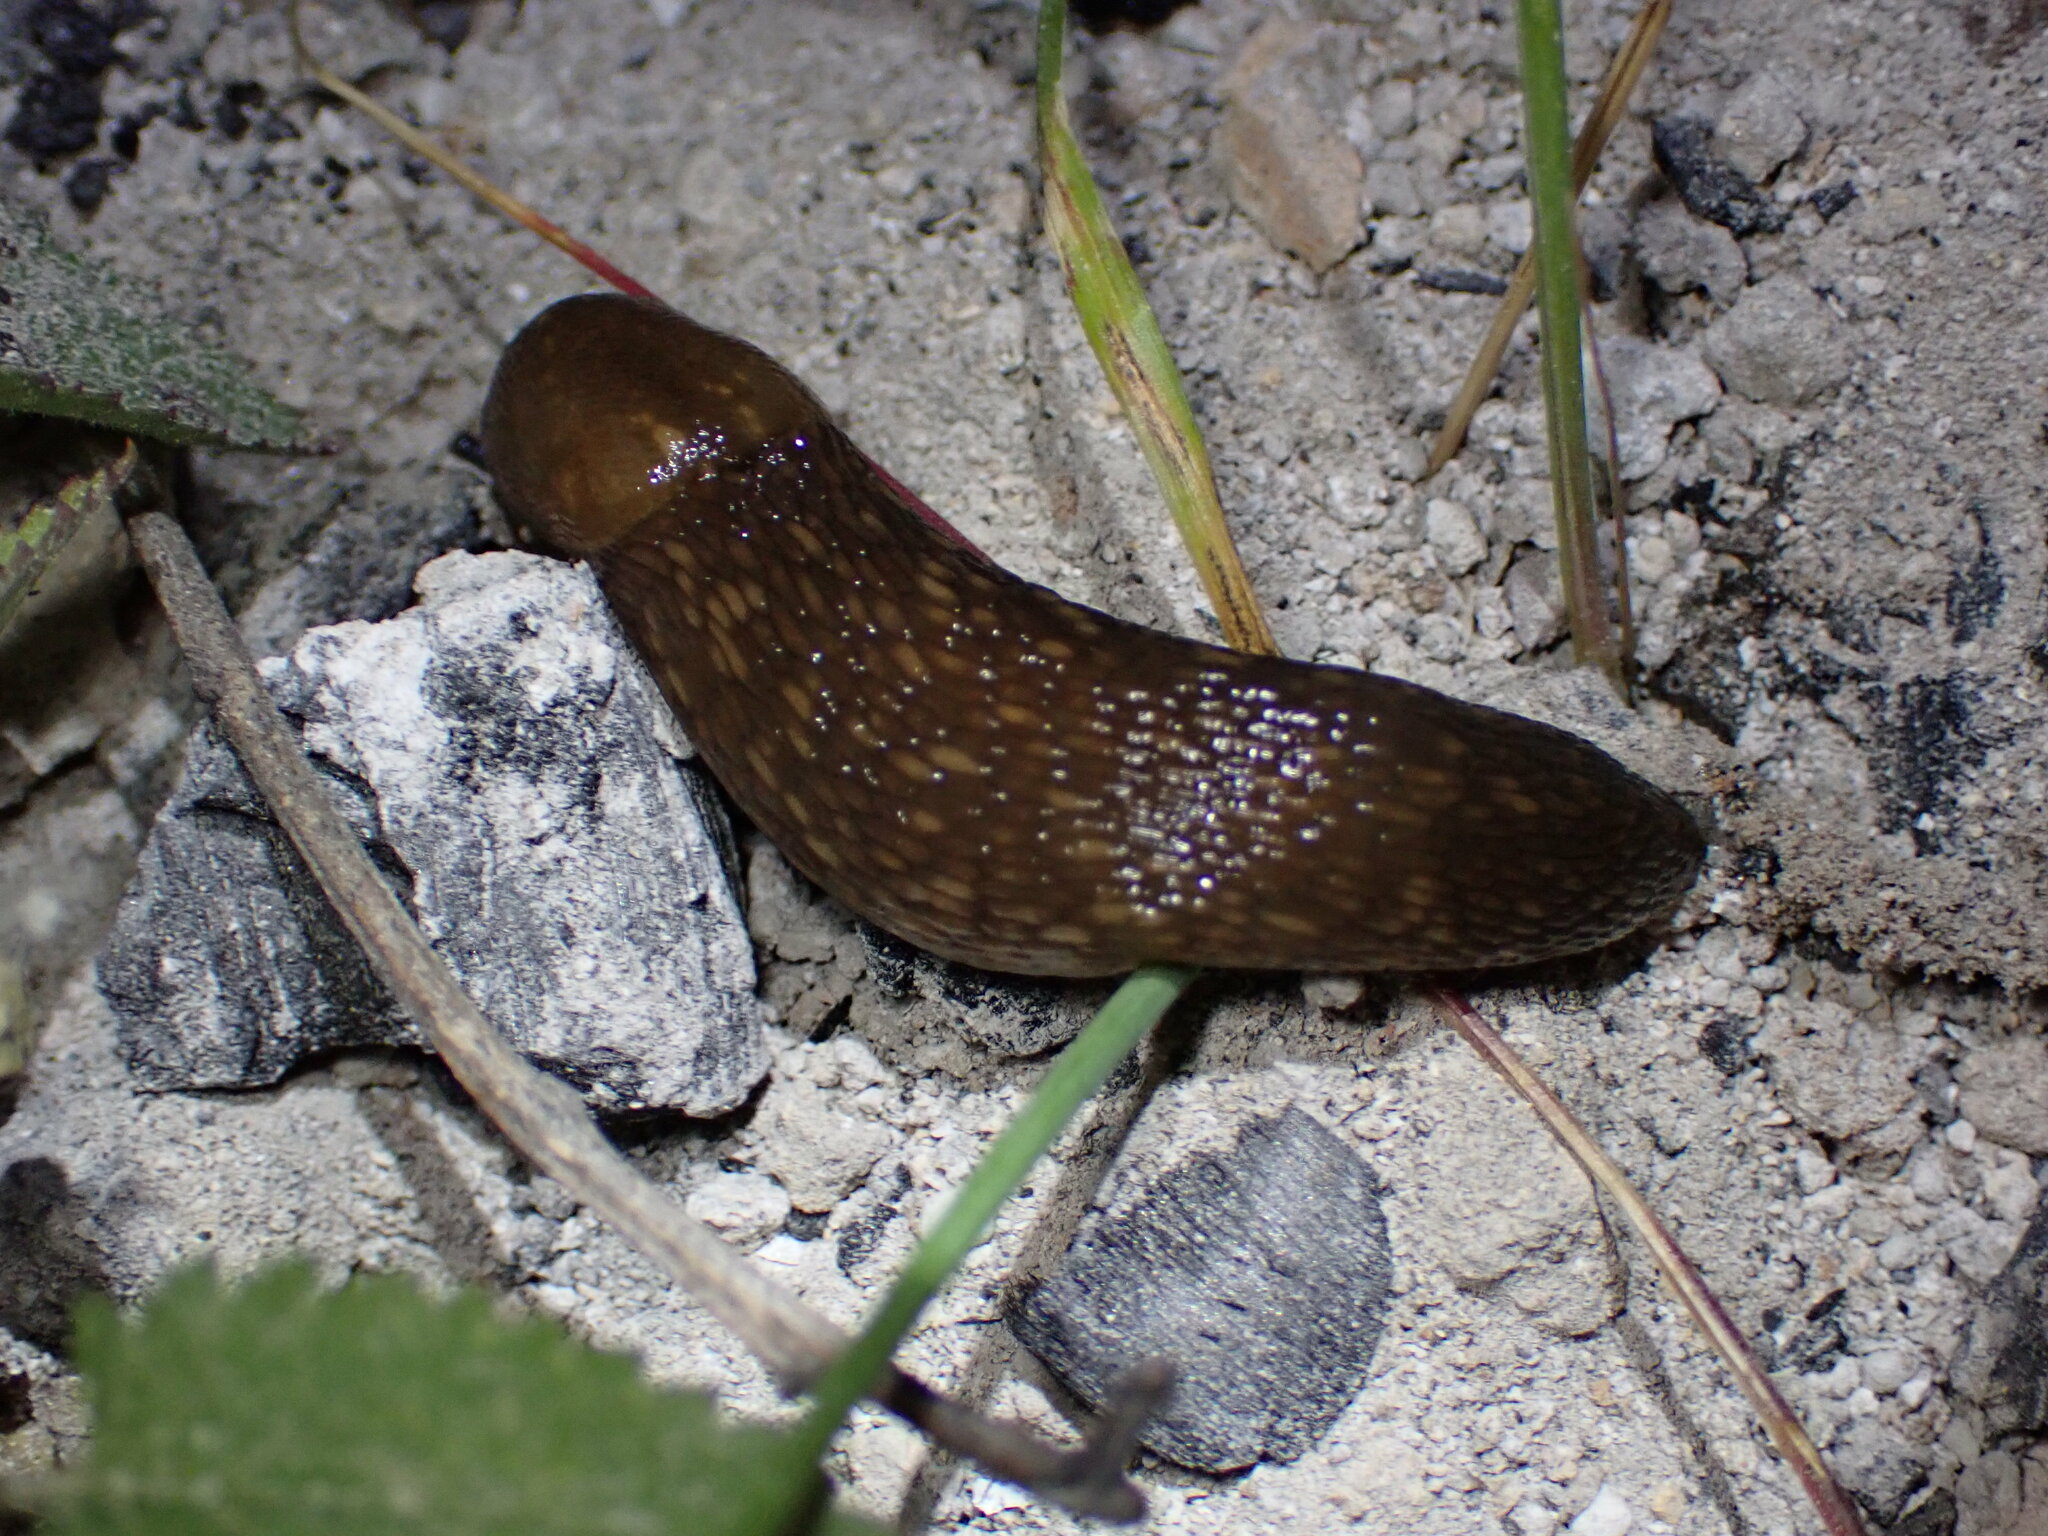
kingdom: Animalia
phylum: Mollusca
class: Gastropoda
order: Stylommatophora
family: Limacidae
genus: Limacus
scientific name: Limacus flavus
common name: Yellow gardenslug
